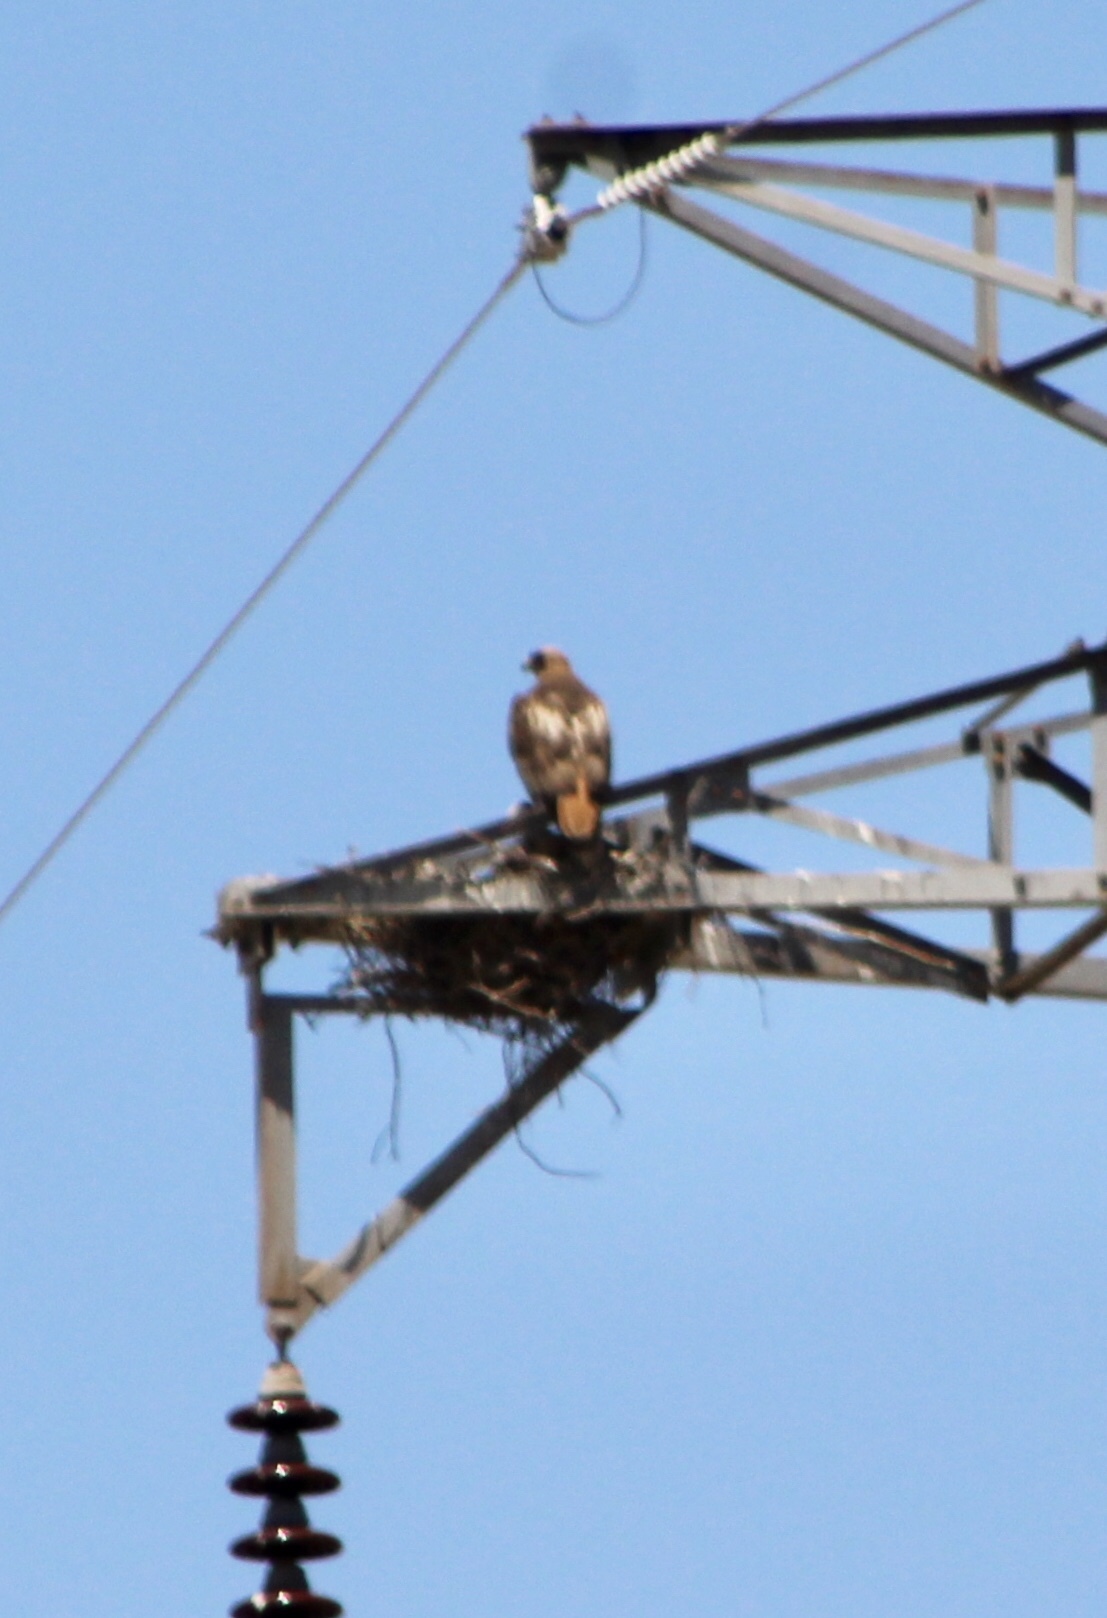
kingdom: Animalia
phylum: Chordata
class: Aves
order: Accipitriformes
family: Accipitridae
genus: Buteo
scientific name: Buteo jamaicensis
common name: Red-tailed hawk
